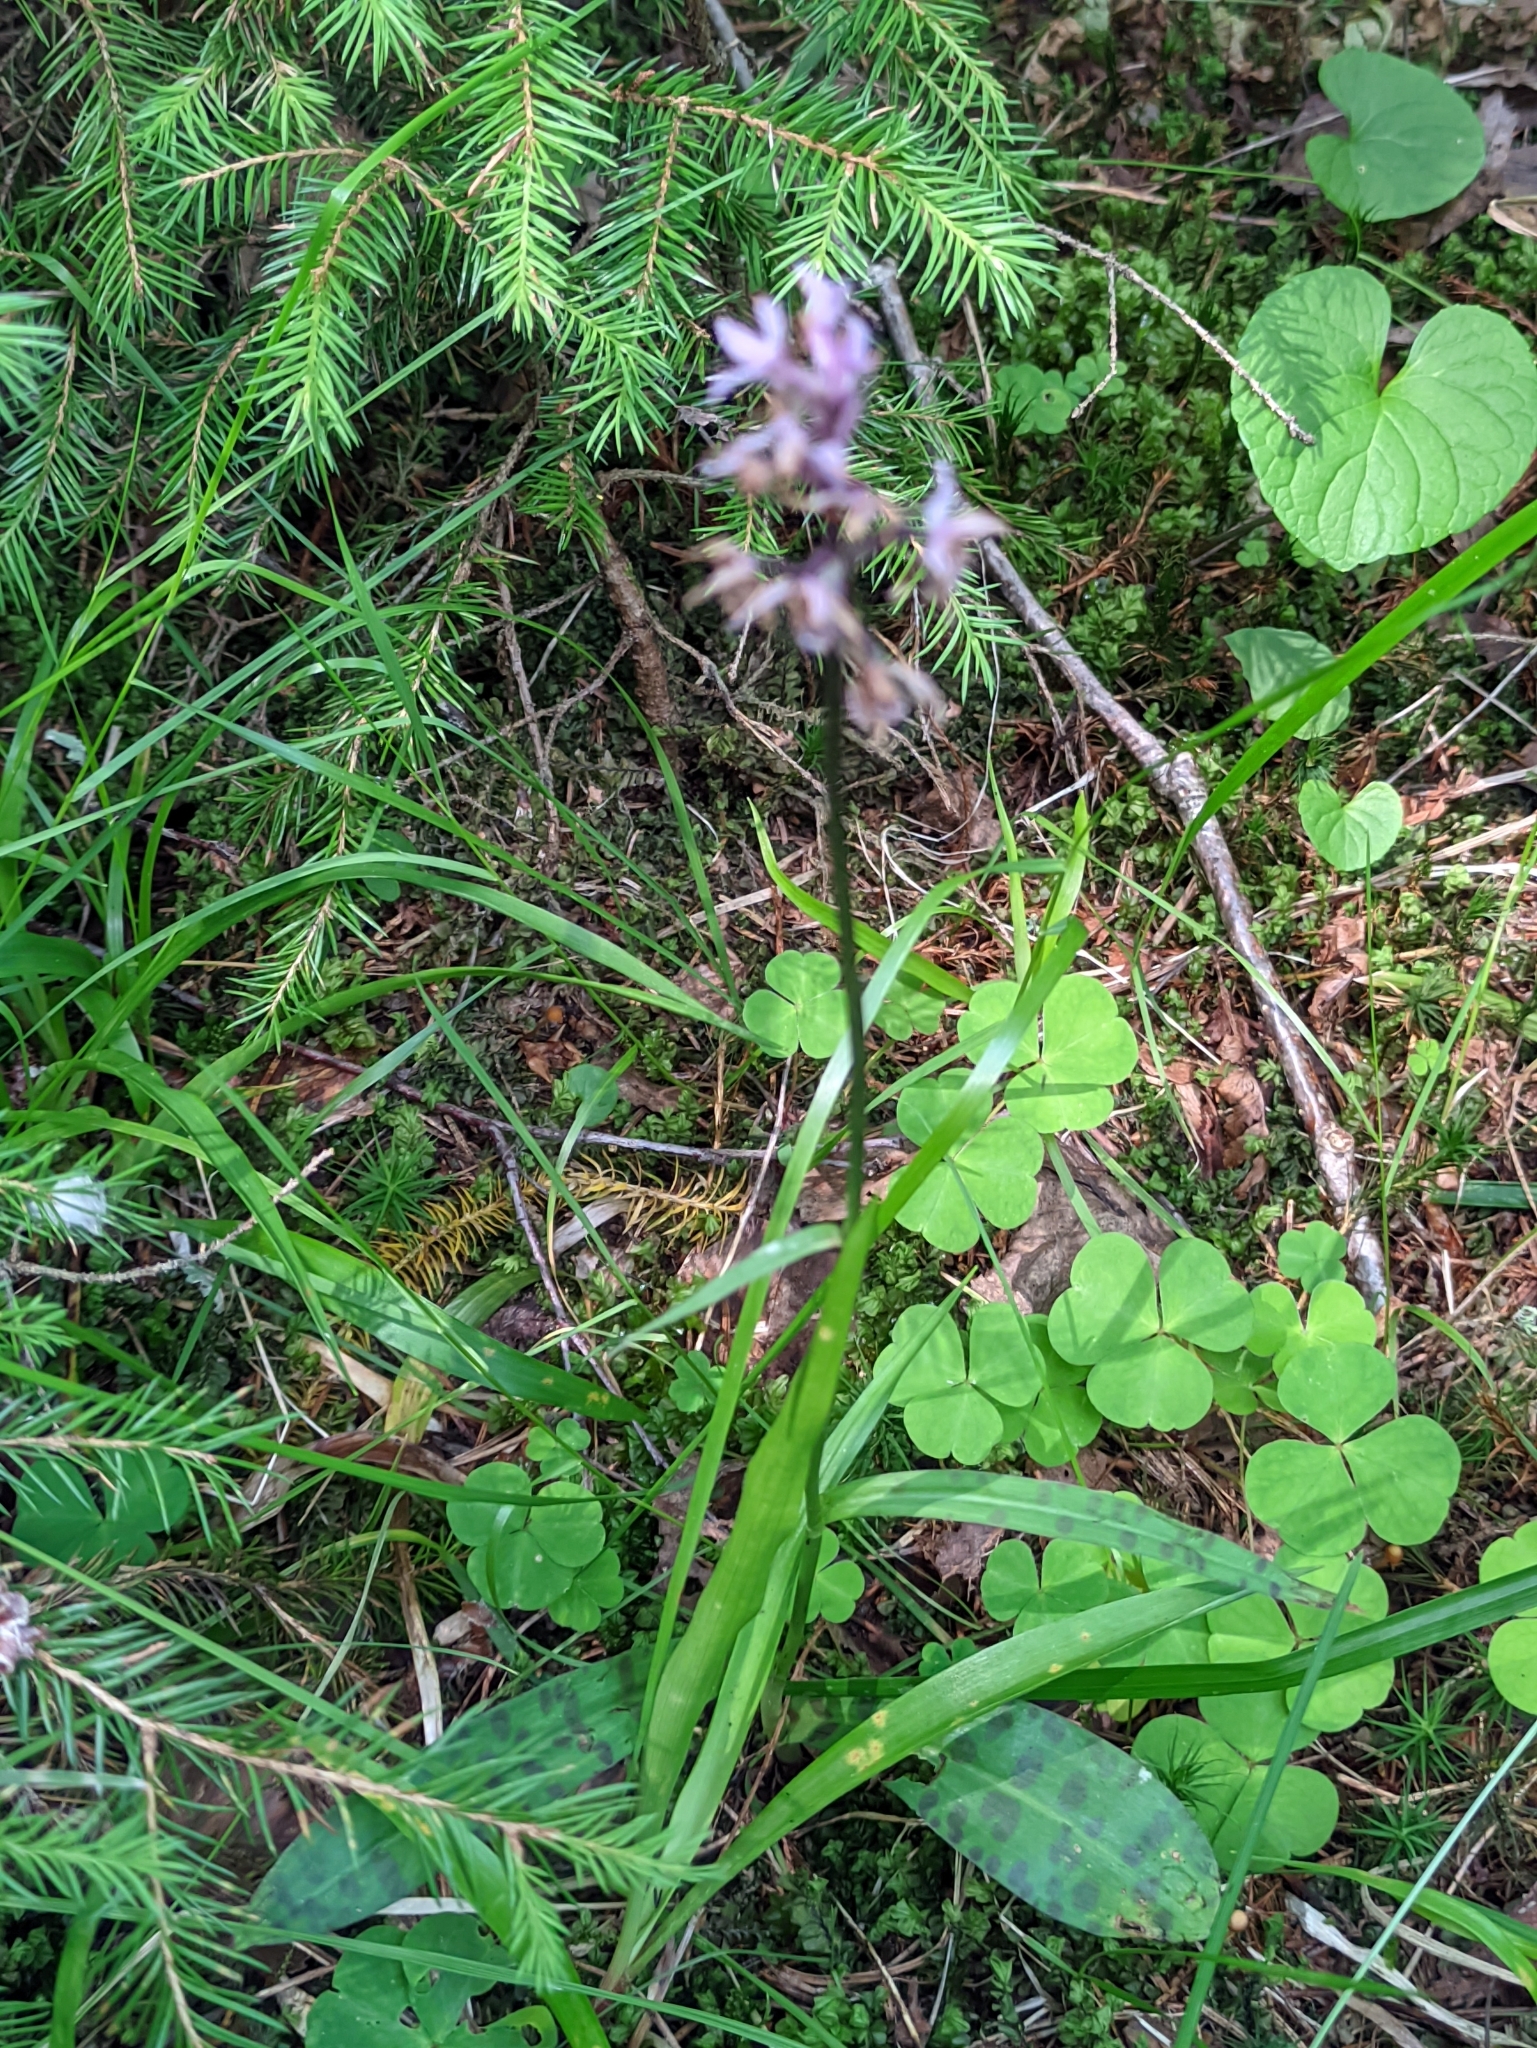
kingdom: Plantae
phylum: Tracheophyta
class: Liliopsida
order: Asparagales
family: Orchidaceae
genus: Dactylorhiza
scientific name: Dactylorhiza maculata
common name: Heath spotted-orchid
